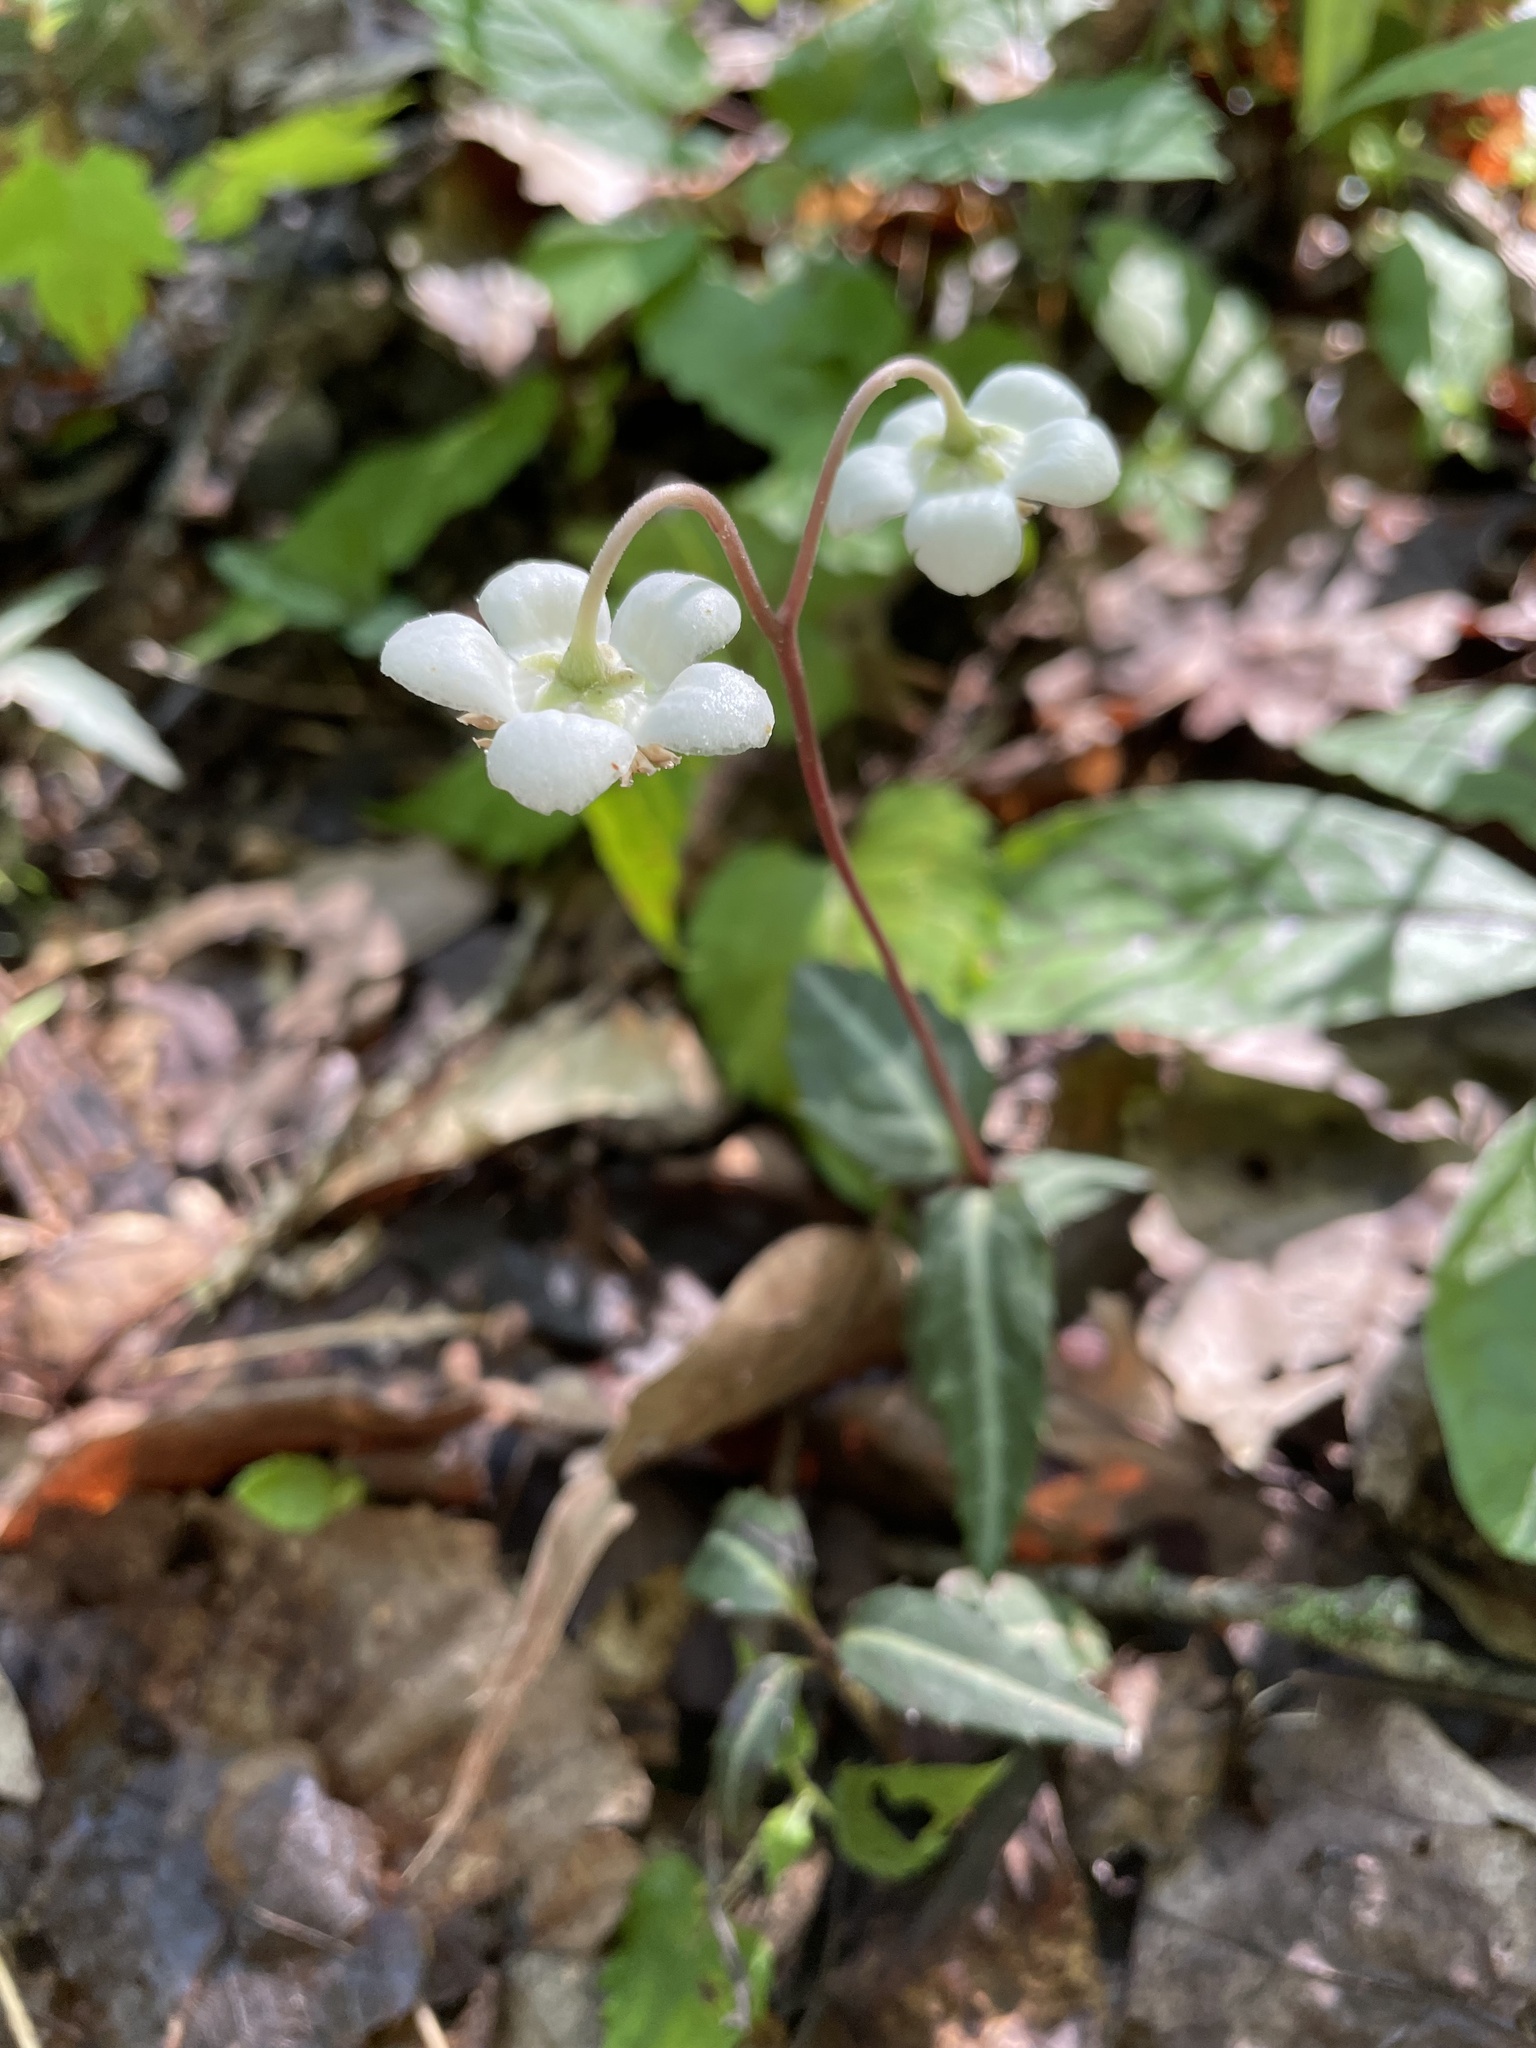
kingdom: Plantae
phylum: Tracheophyta
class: Magnoliopsida
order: Ericales
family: Ericaceae
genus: Chimaphila
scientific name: Chimaphila maculata
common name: Spotted pipsissewa
